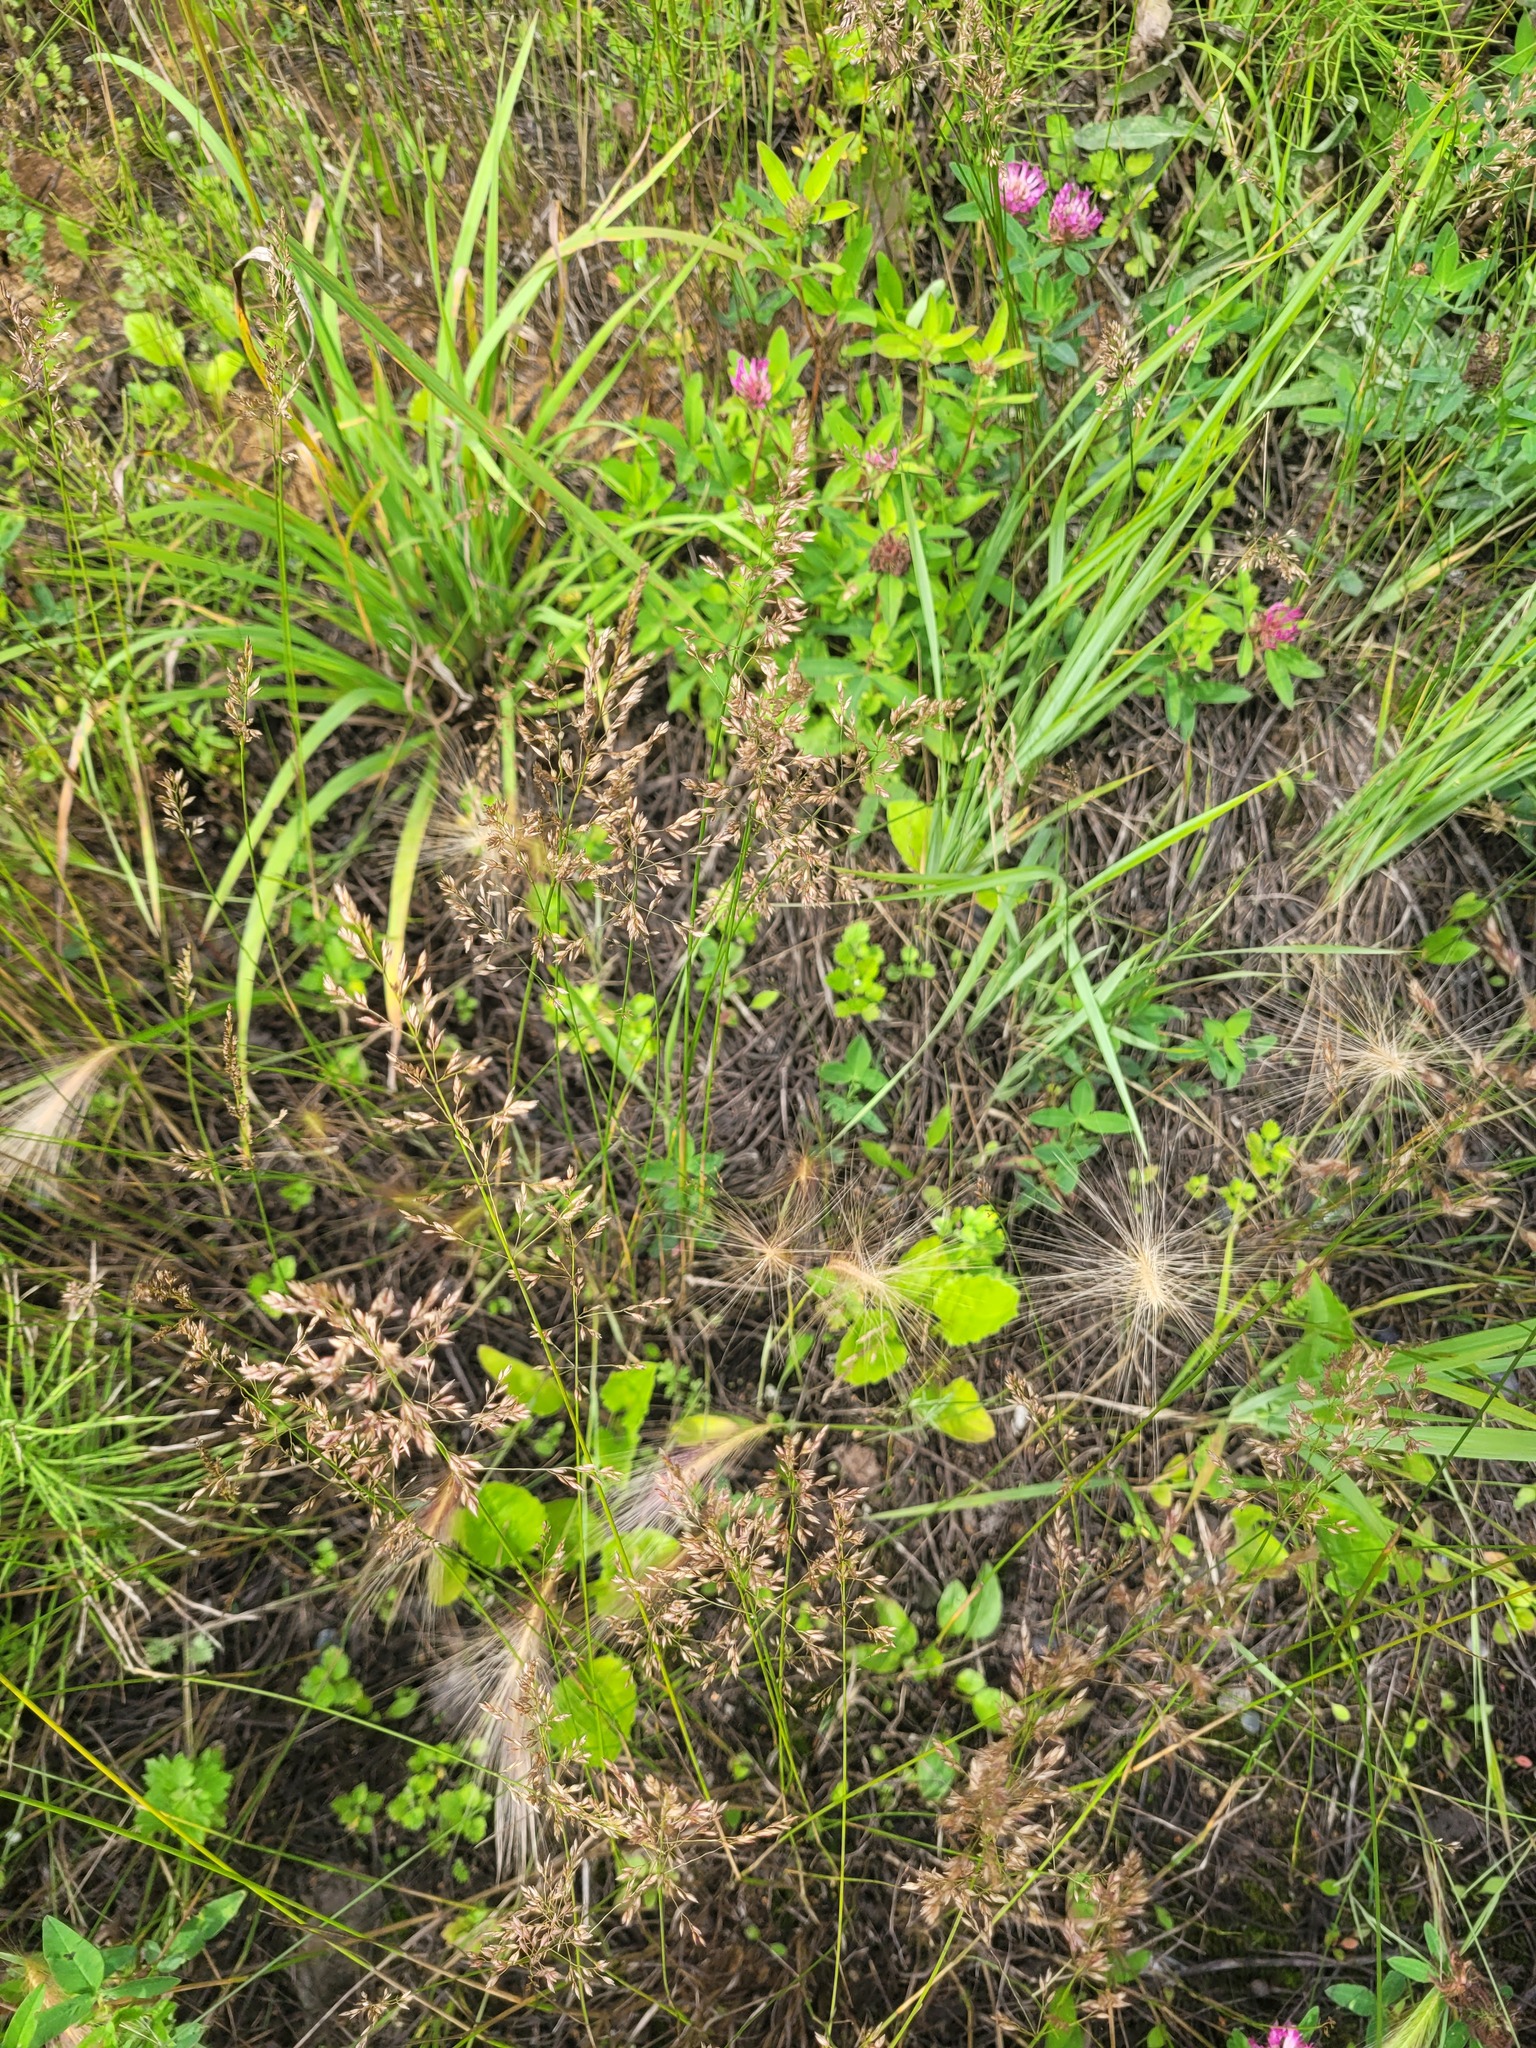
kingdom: Plantae
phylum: Tracheophyta
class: Liliopsida
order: Poales
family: Poaceae
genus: Hordeum
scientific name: Hordeum jubatum
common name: Foxtail barley
